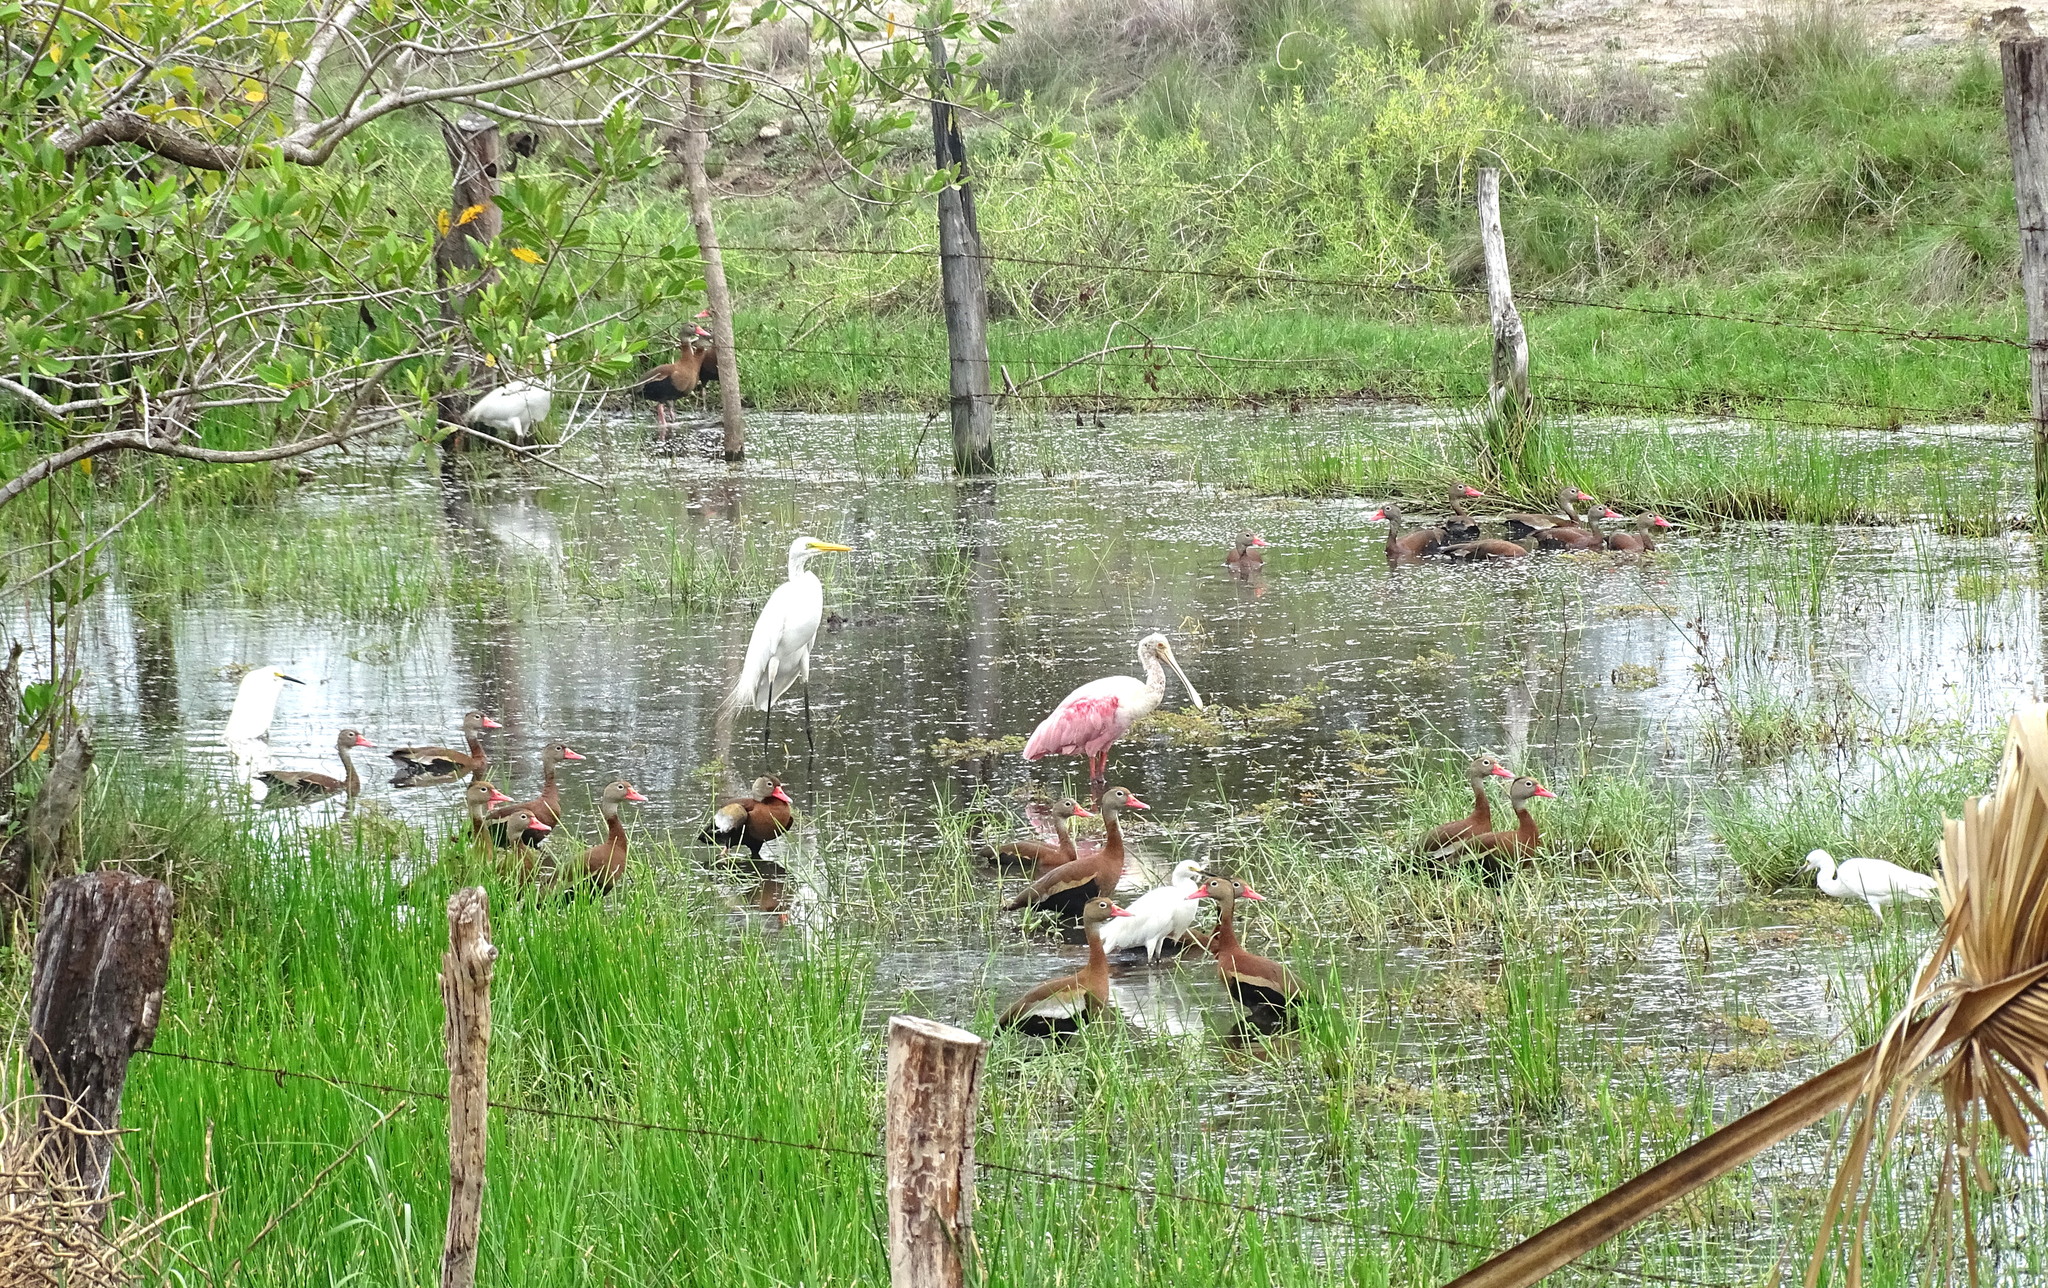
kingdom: Animalia
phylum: Chordata
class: Aves
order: Pelecaniformes
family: Threskiornithidae
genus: Platalea
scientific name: Platalea ajaja
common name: Roseate spoonbill
